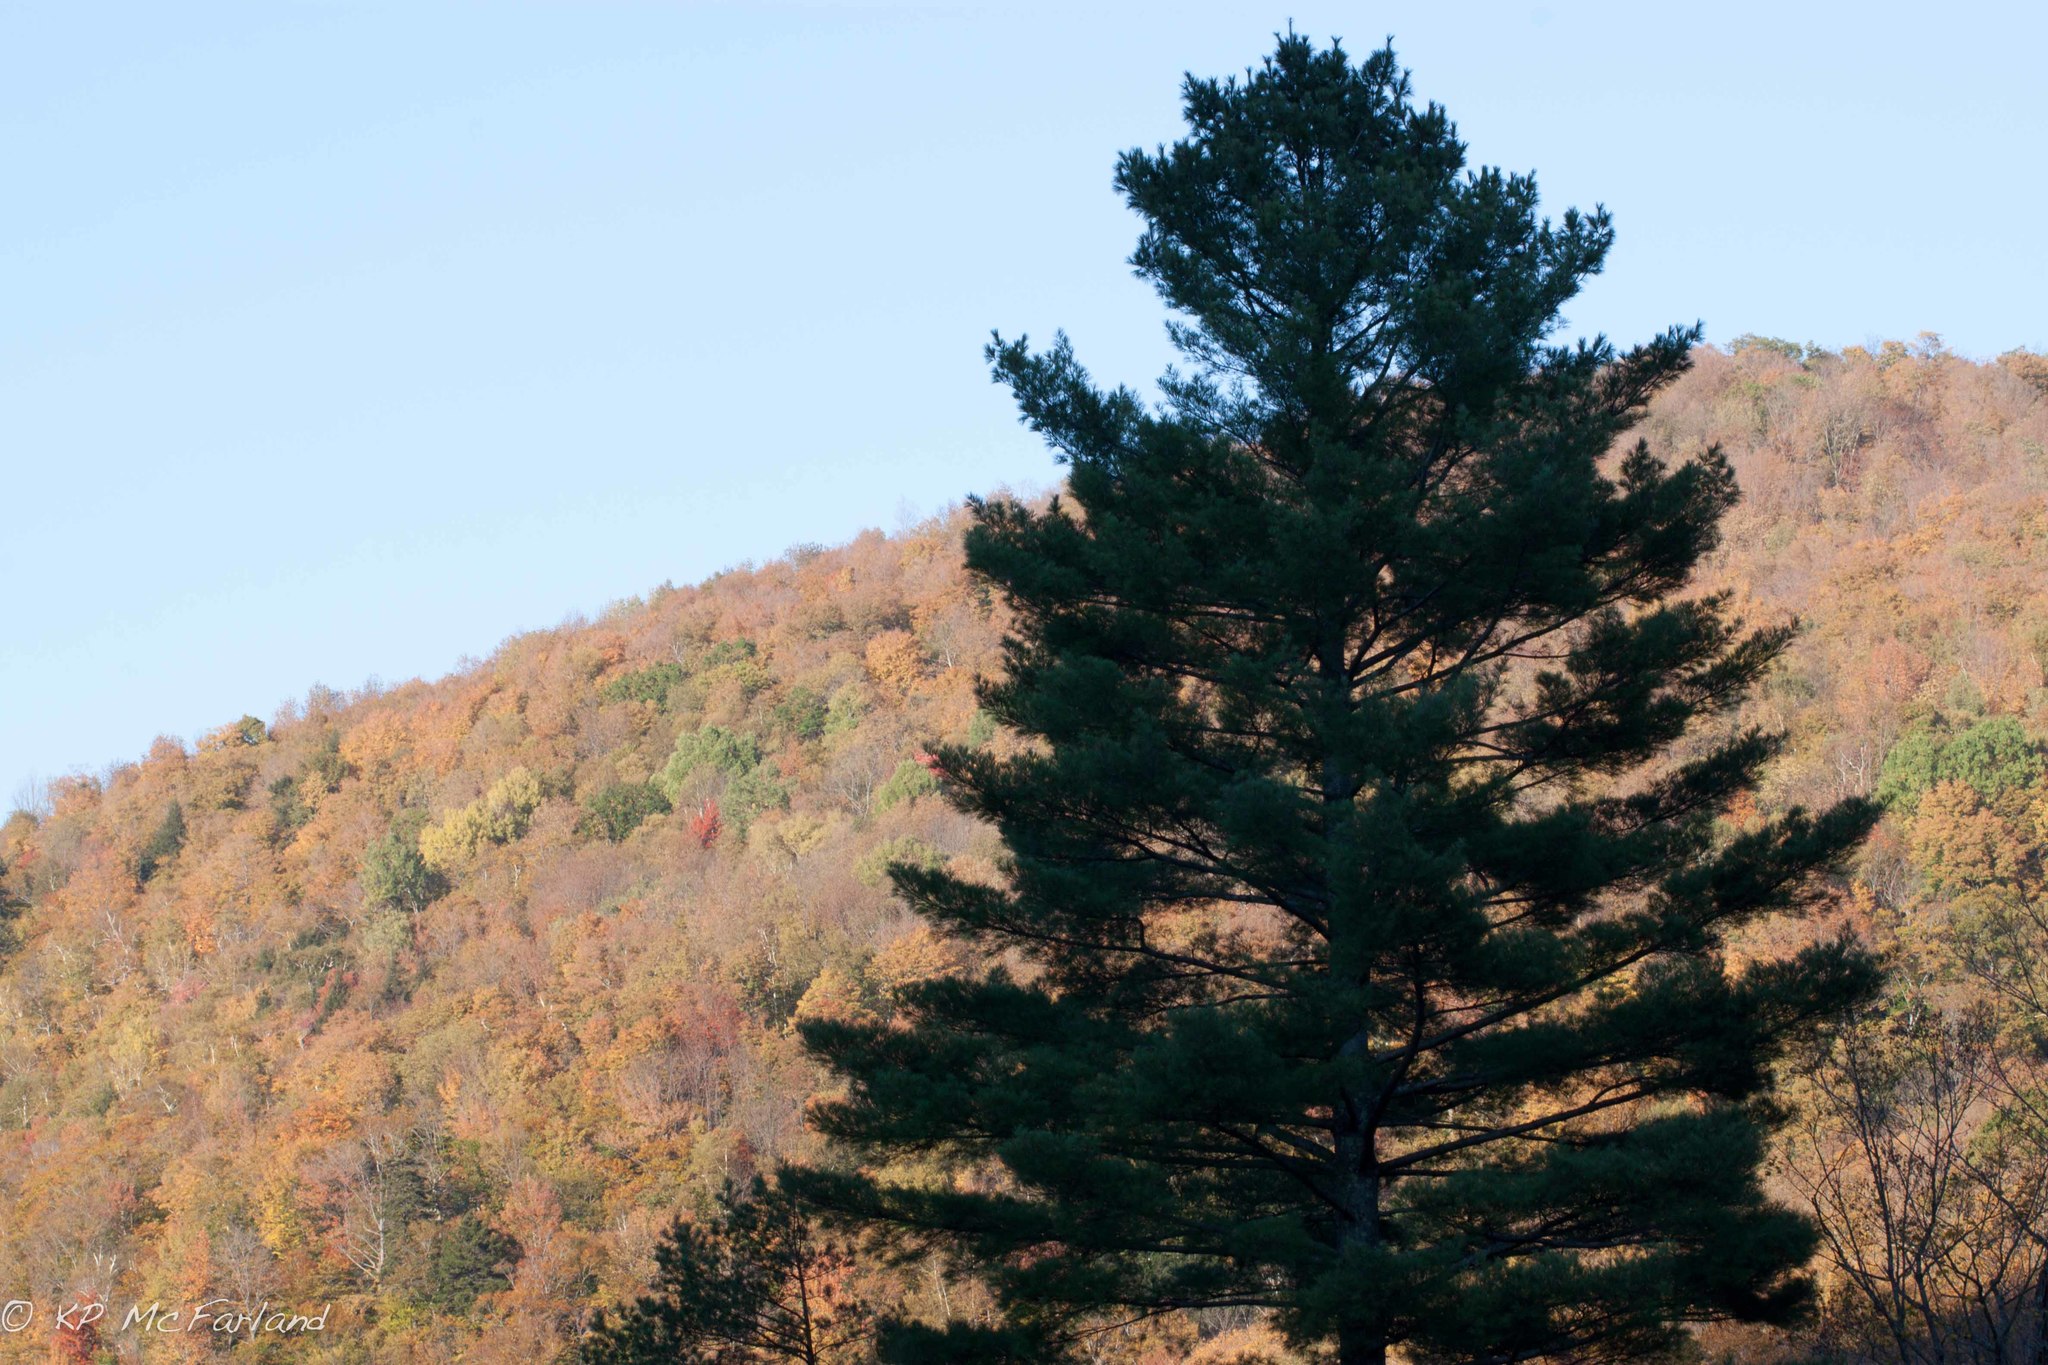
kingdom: Plantae
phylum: Tracheophyta
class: Pinopsida
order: Pinales
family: Pinaceae
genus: Pinus
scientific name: Pinus strobus
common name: Weymouth pine
